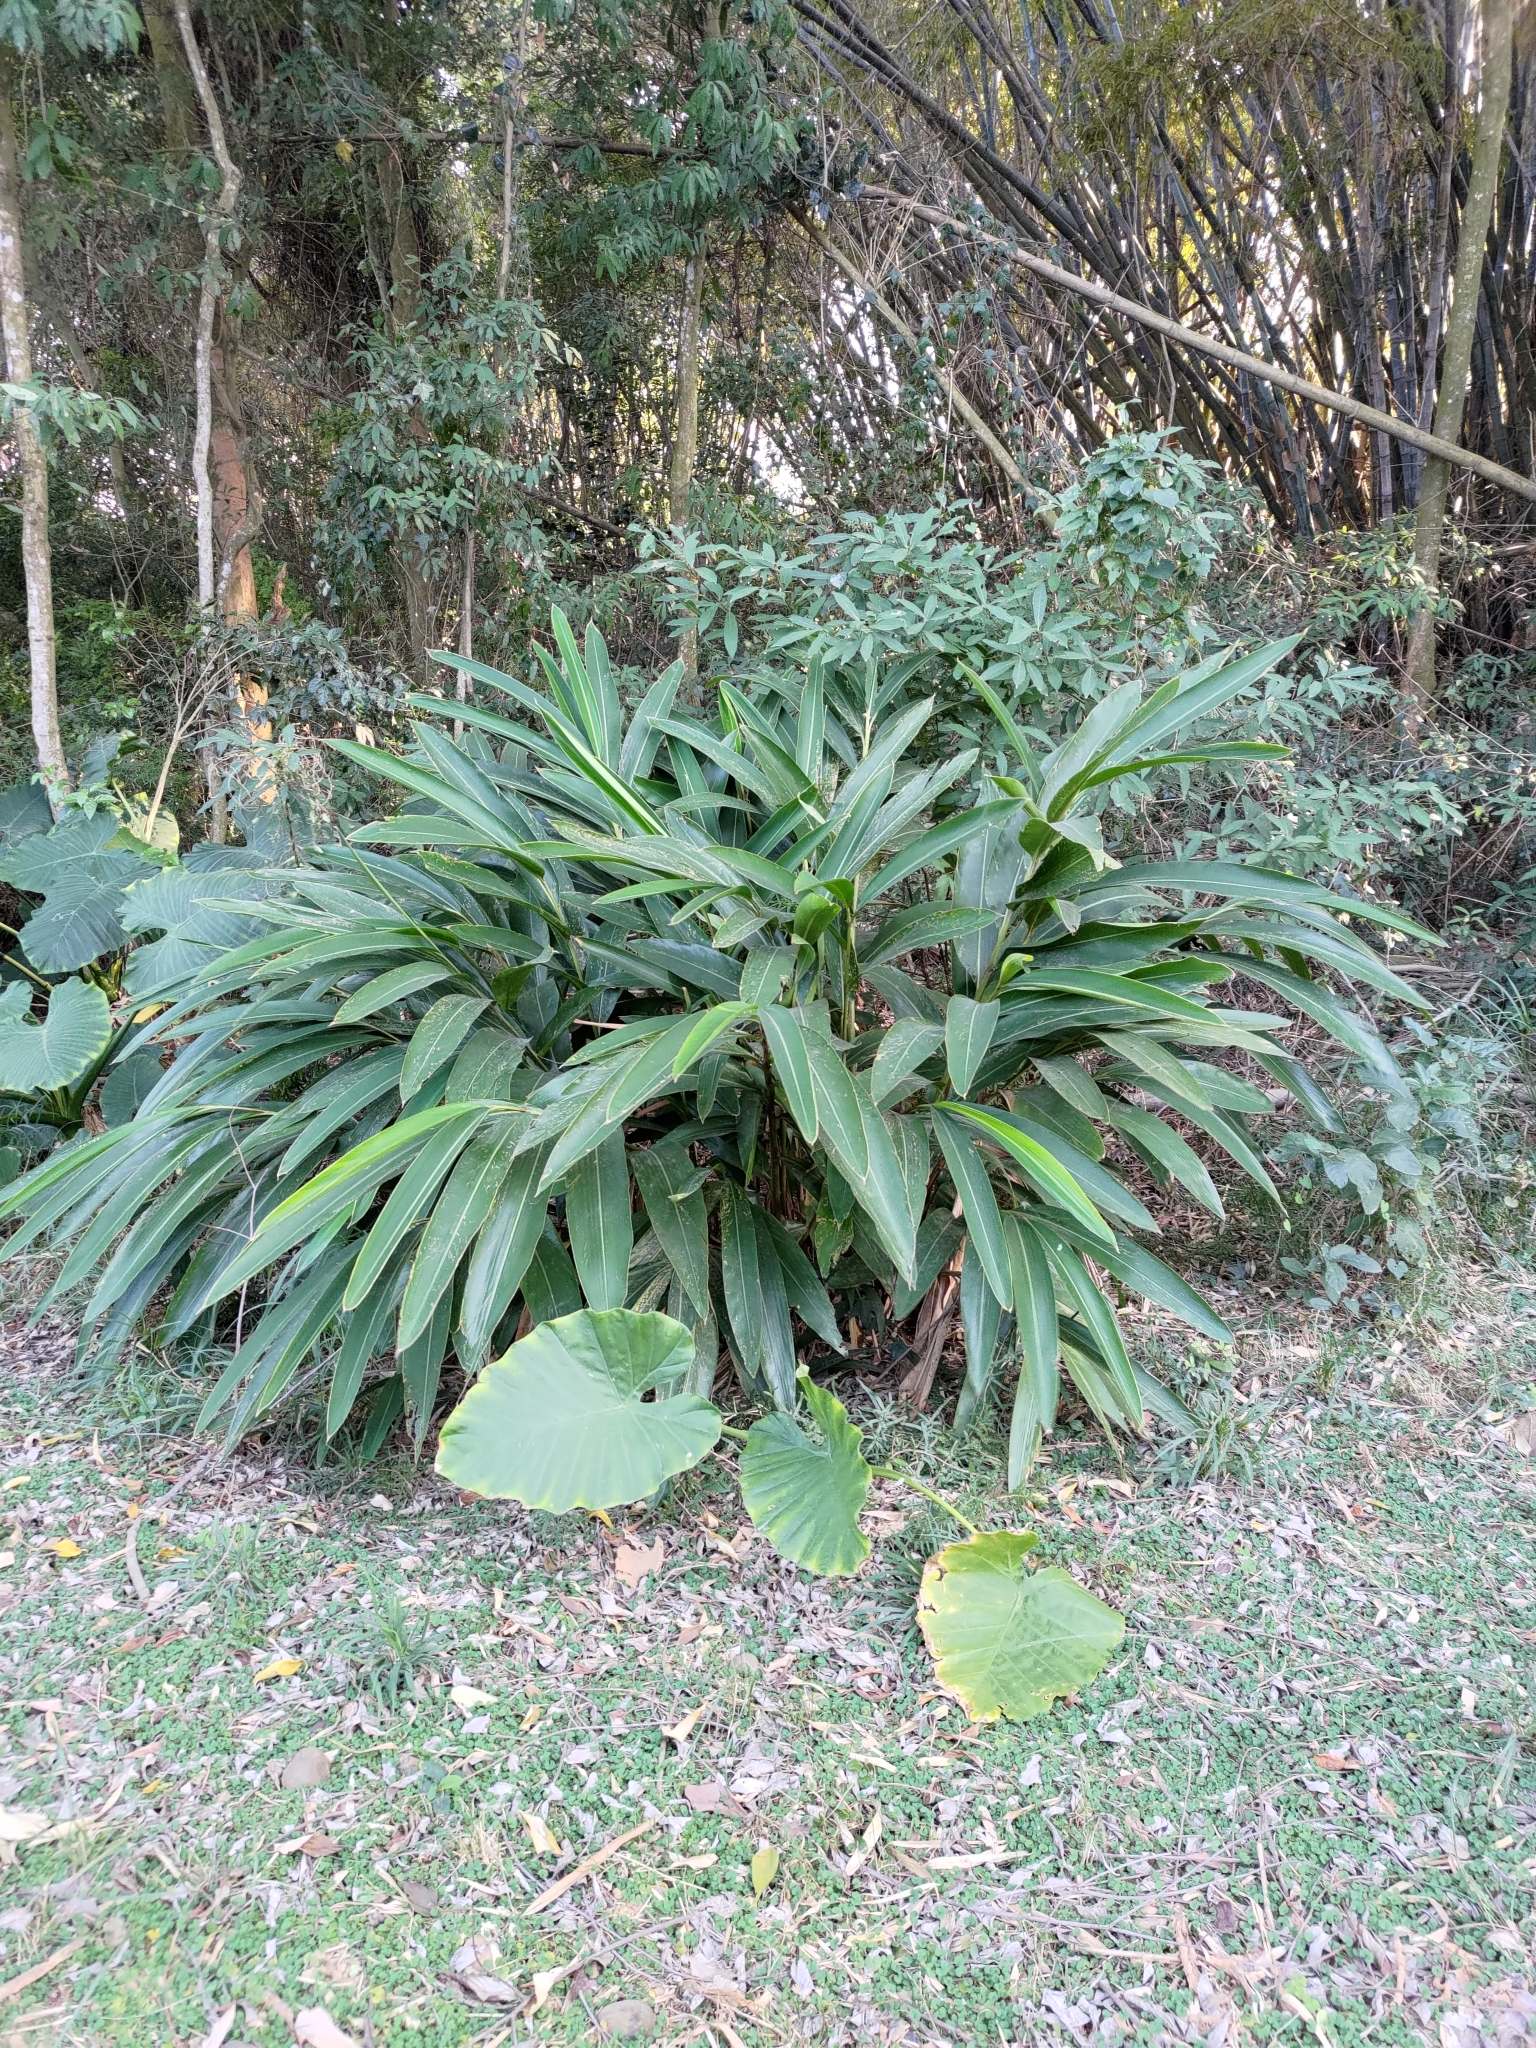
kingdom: Plantae
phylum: Tracheophyta
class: Liliopsida
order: Zingiberales
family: Zingiberaceae
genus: Alpinia
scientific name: Alpinia zerumbet
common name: Shellplant
